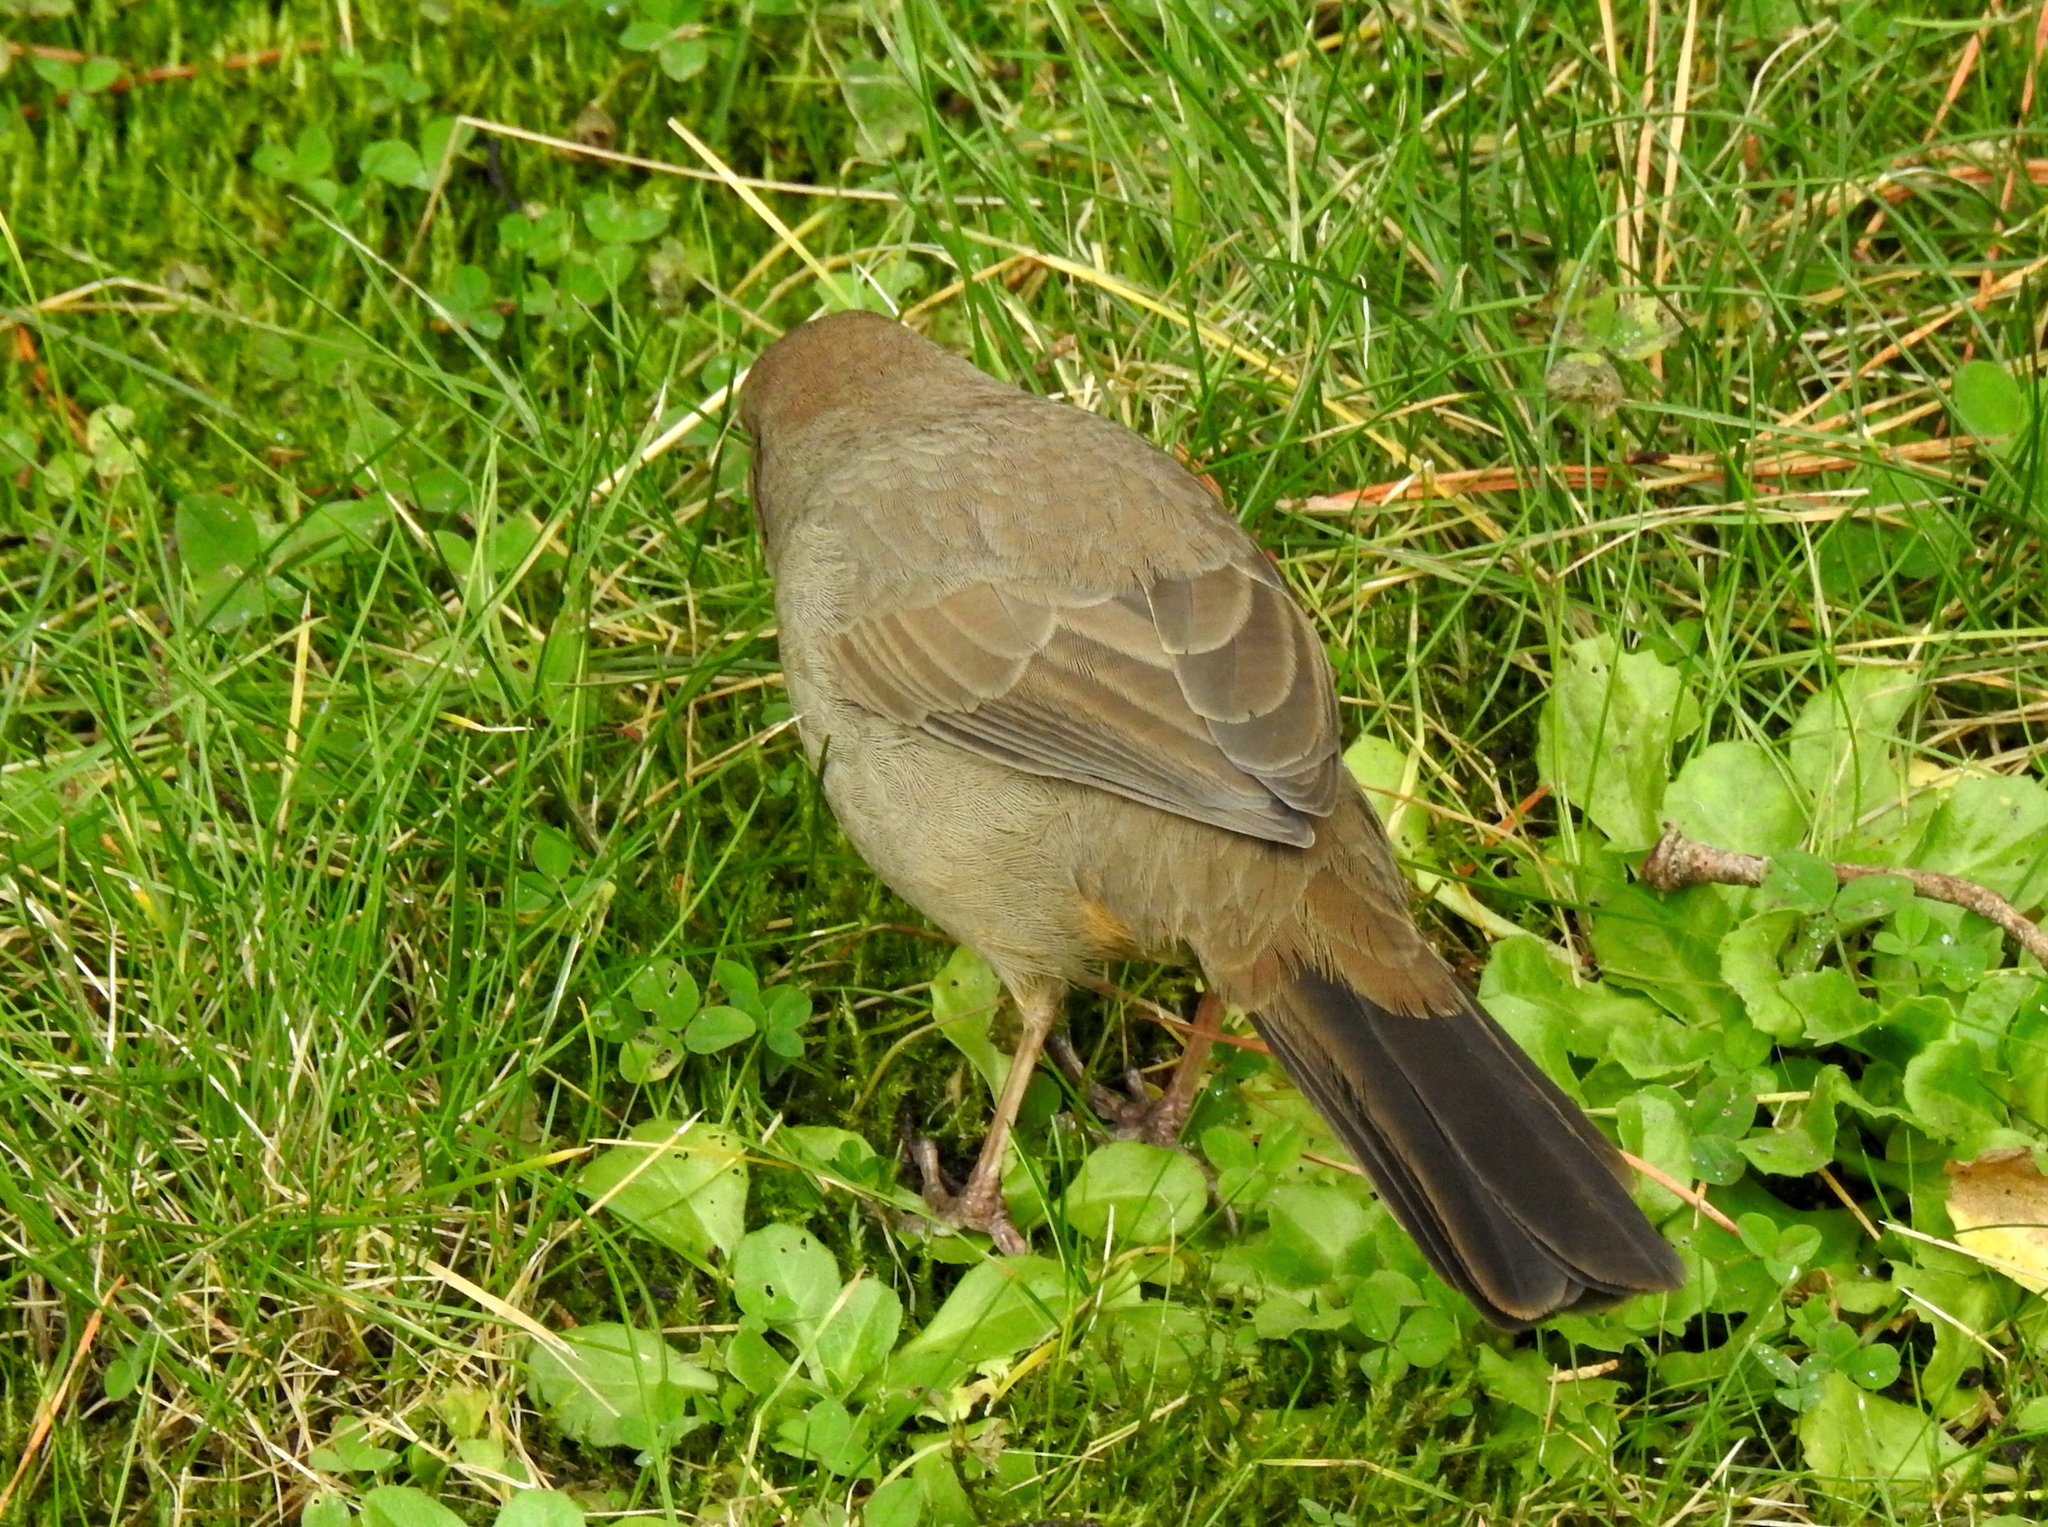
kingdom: Animalia
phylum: Chordata
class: Aves
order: Passeriformes
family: Passerellidae
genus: Melozone
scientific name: Melozone crissalis
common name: California towhee
